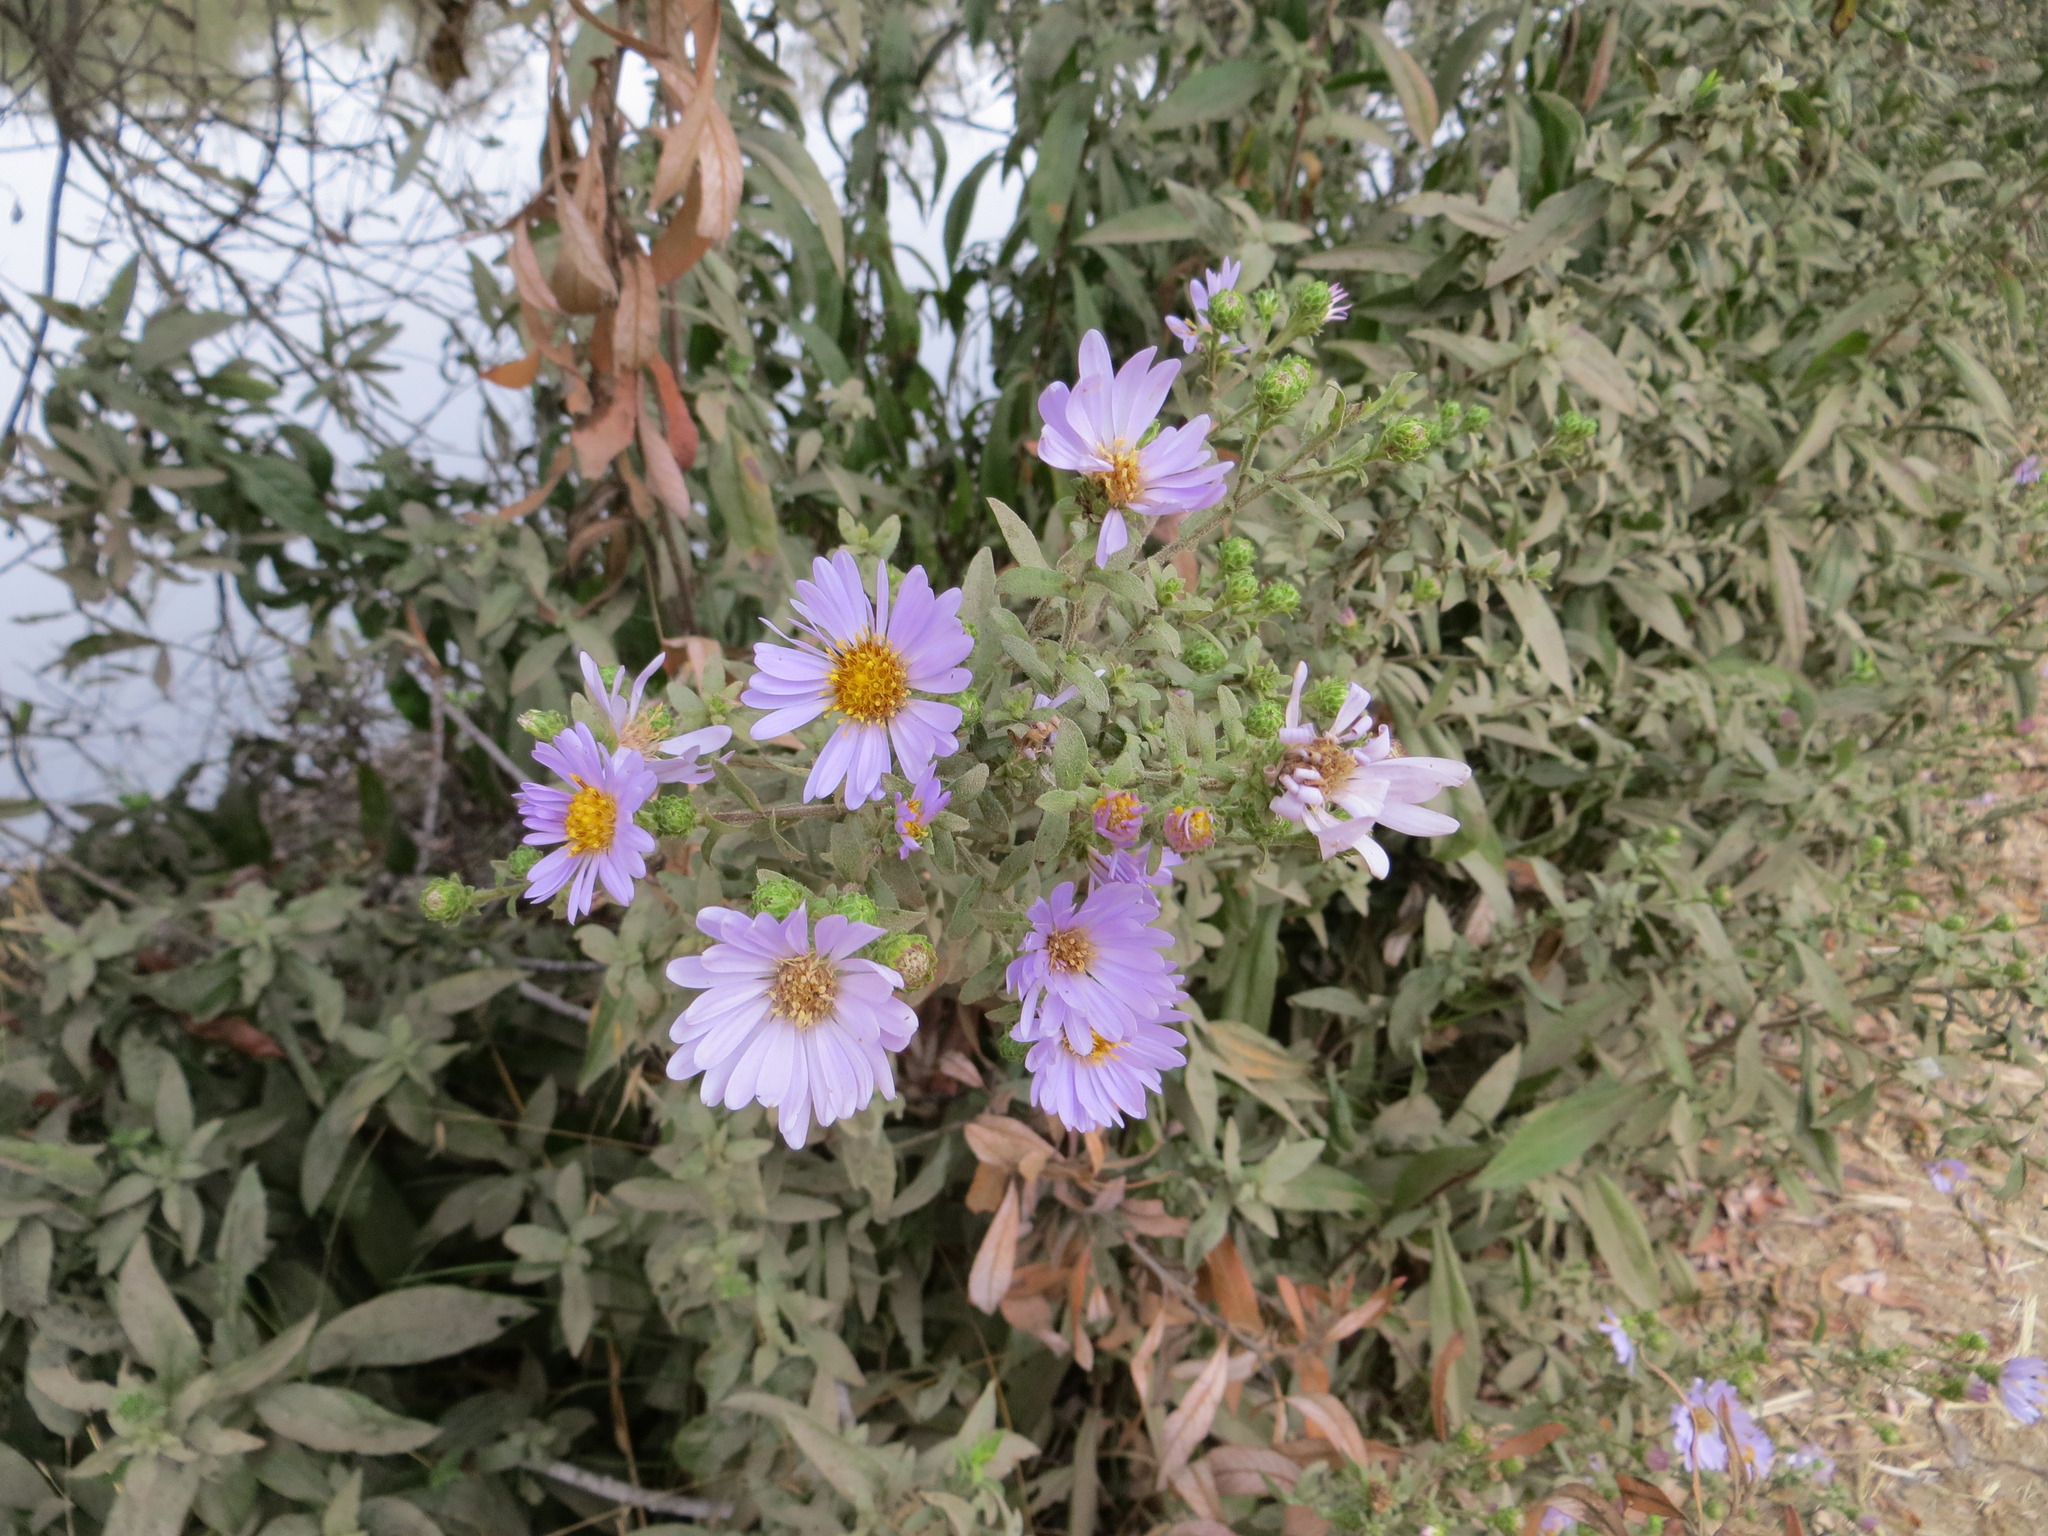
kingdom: Plantae
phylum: Tracheophyta
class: Magnoliopsida
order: Asterales
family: Asteraceae
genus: Symphyotrichum
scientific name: Symphyotrichum chilense
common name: Pacific aster
